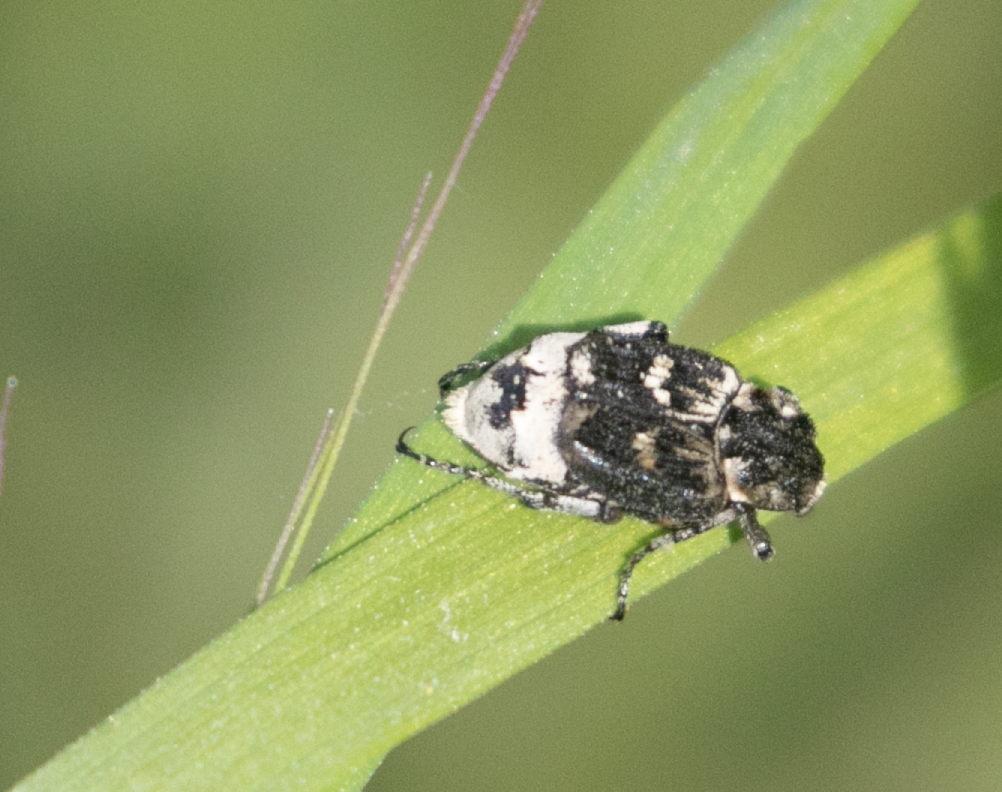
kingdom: Animalia
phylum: Arthropoda
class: Insecta
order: Coleoptera
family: Scarabaeidae
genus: Valgus
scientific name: Valgus hemipterus
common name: Bug flower chafer
